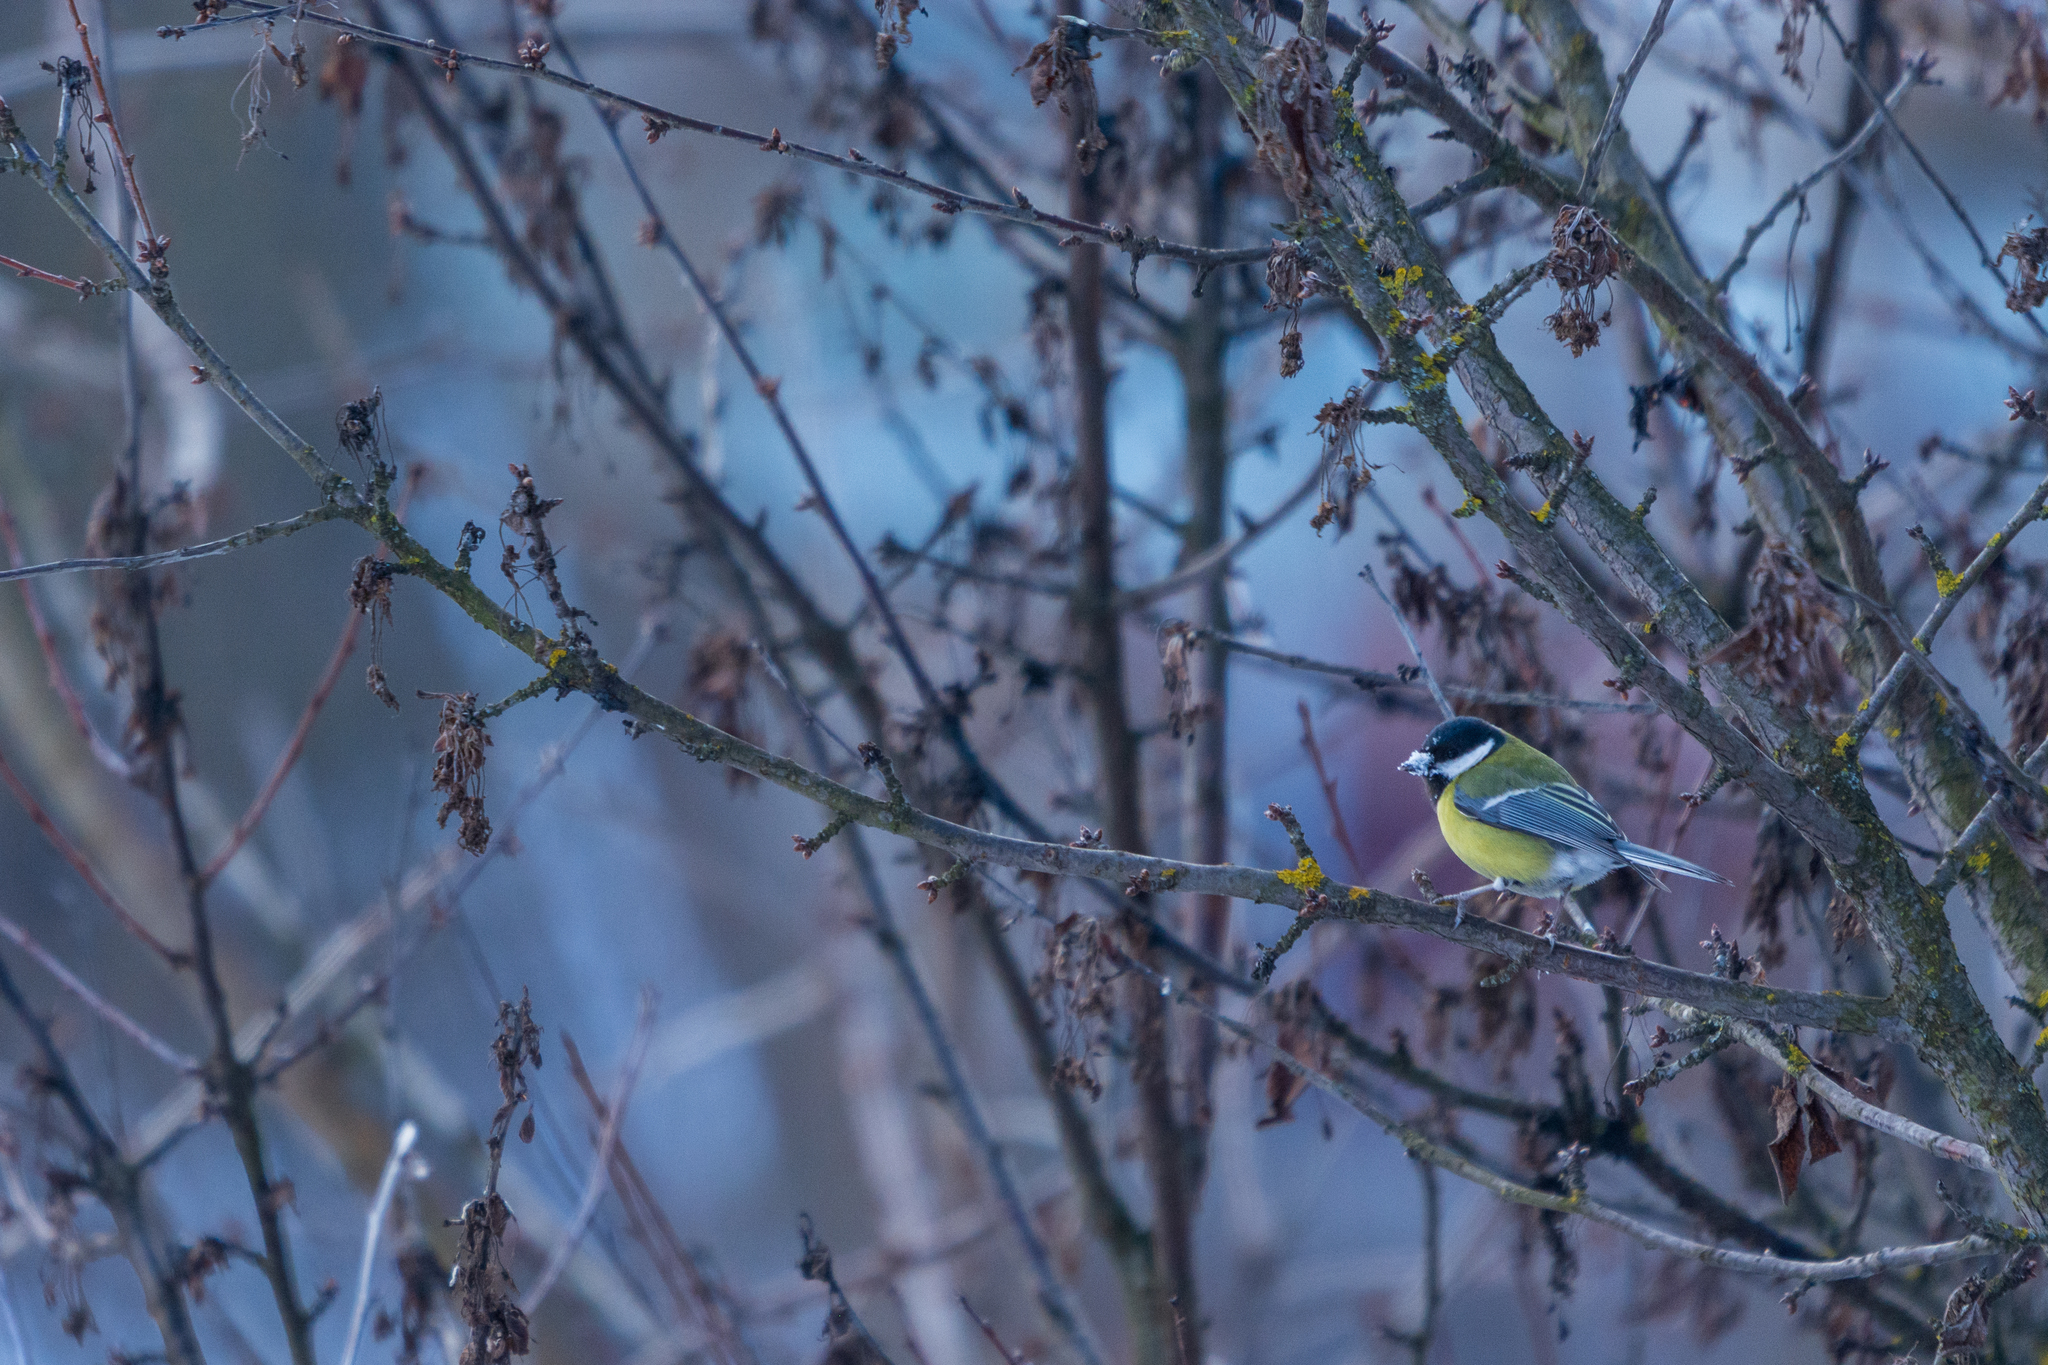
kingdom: Animalia
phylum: Chordata
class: Aves
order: Passeriformes
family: Paridae
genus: Parus
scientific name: Parus major
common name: Great tit
